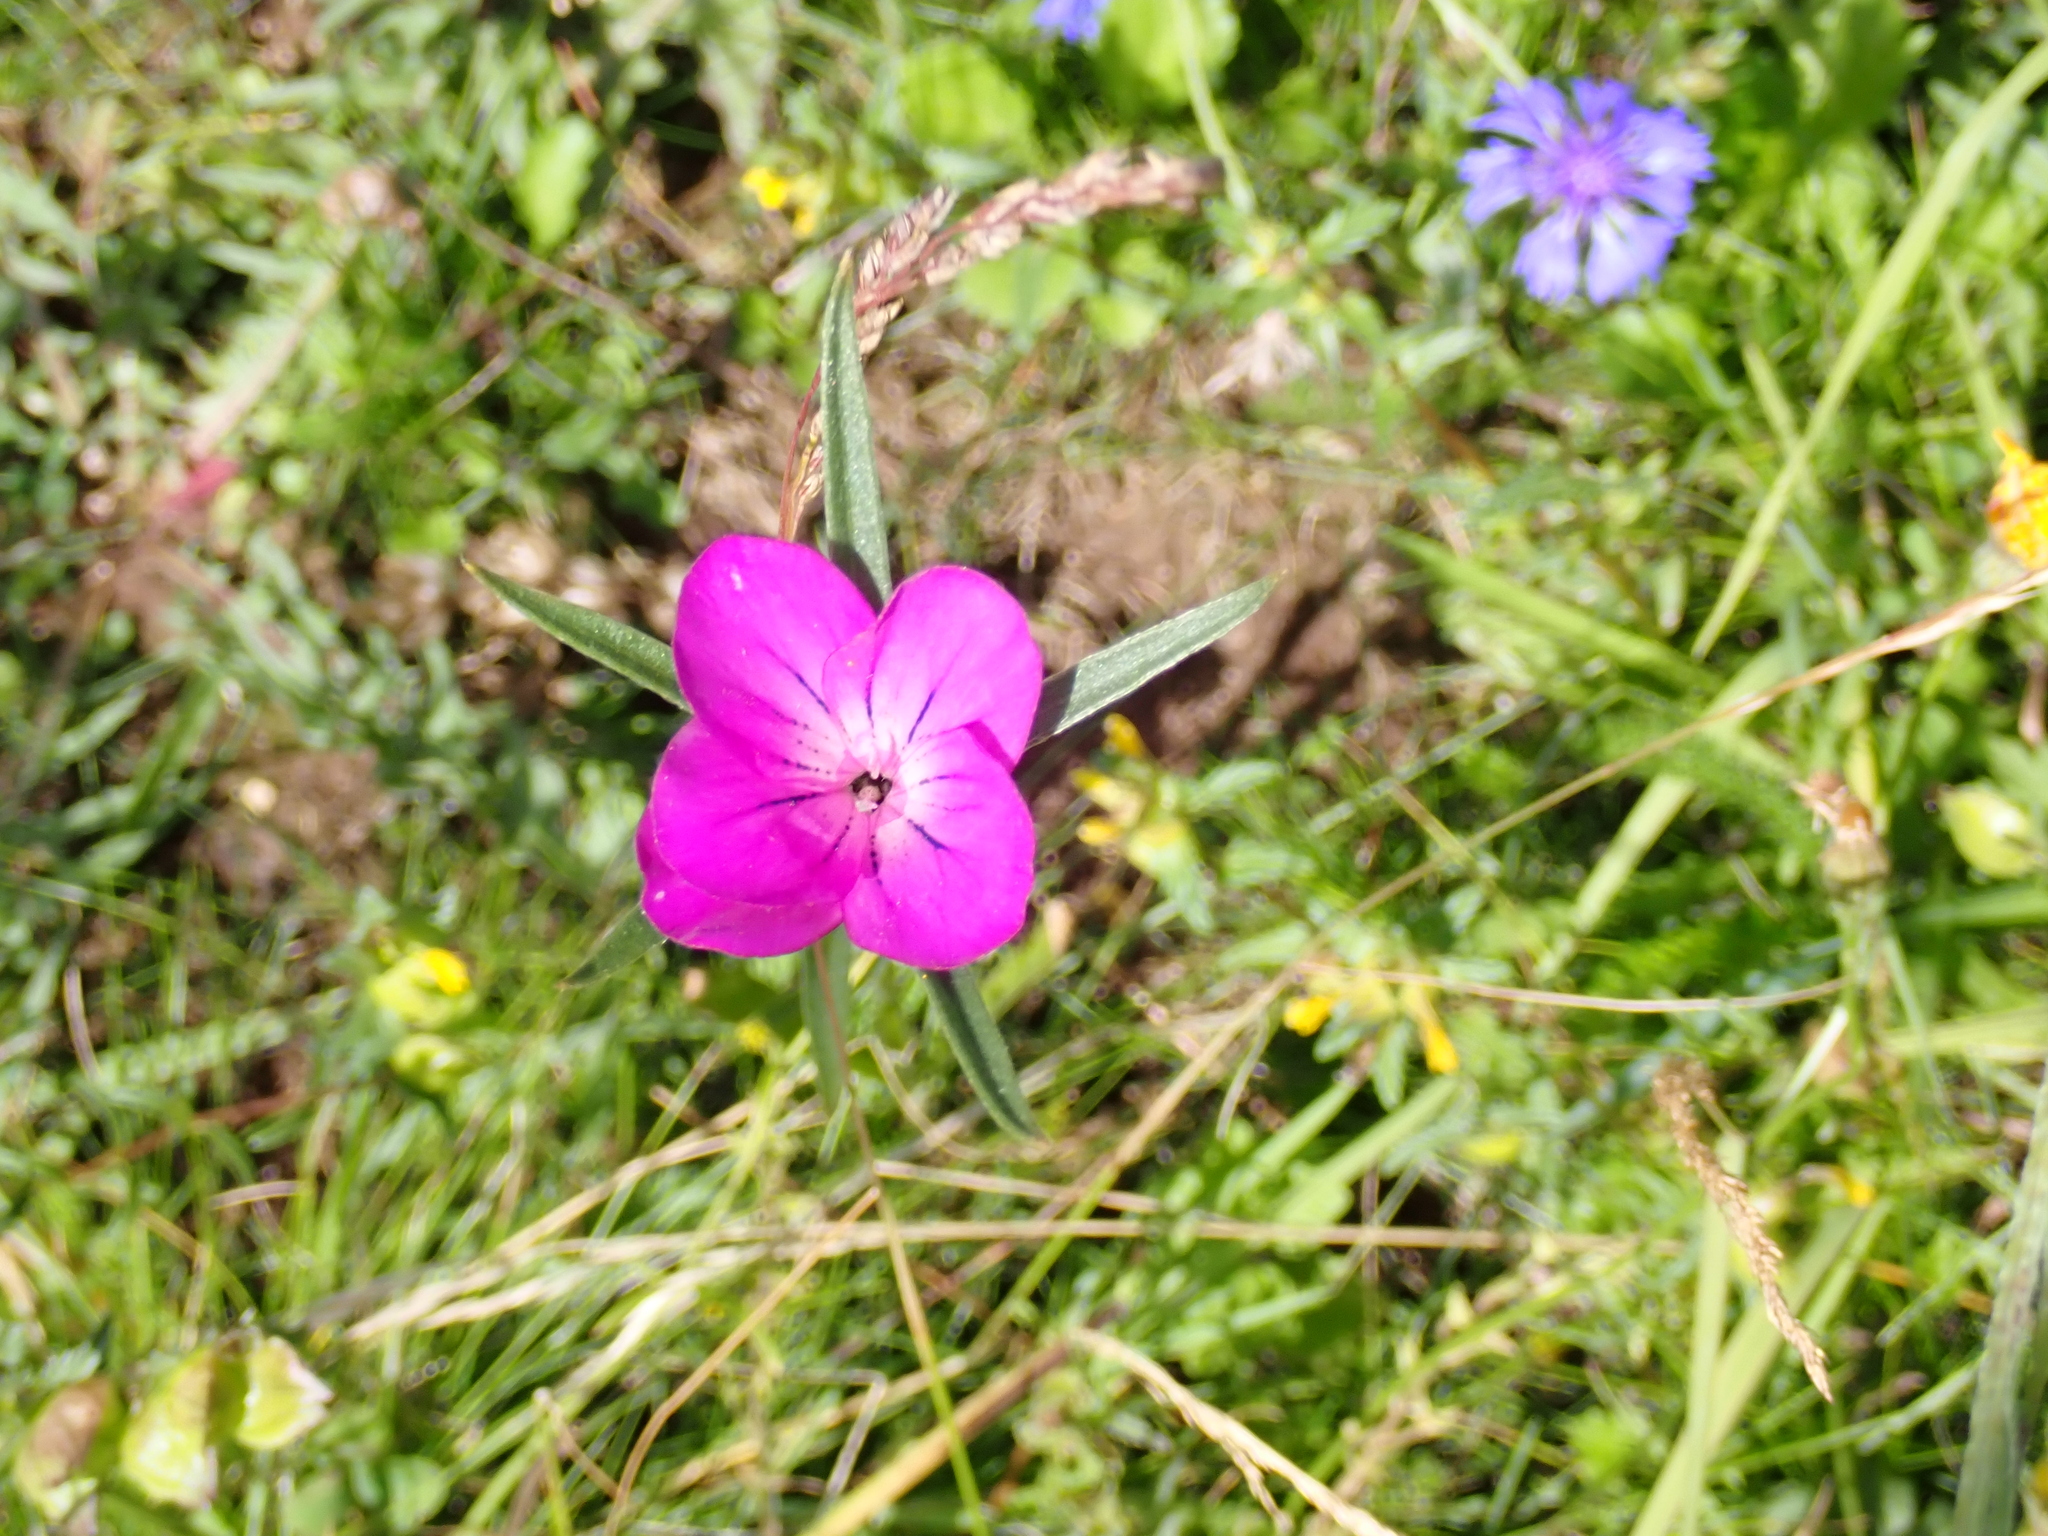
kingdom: Plantae
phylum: Tracheophyta
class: Magnoliopsida
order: Caryophyllales
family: Caryophyllaceae
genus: Agrostemma
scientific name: Agrostemma githago
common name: Common corncockle
